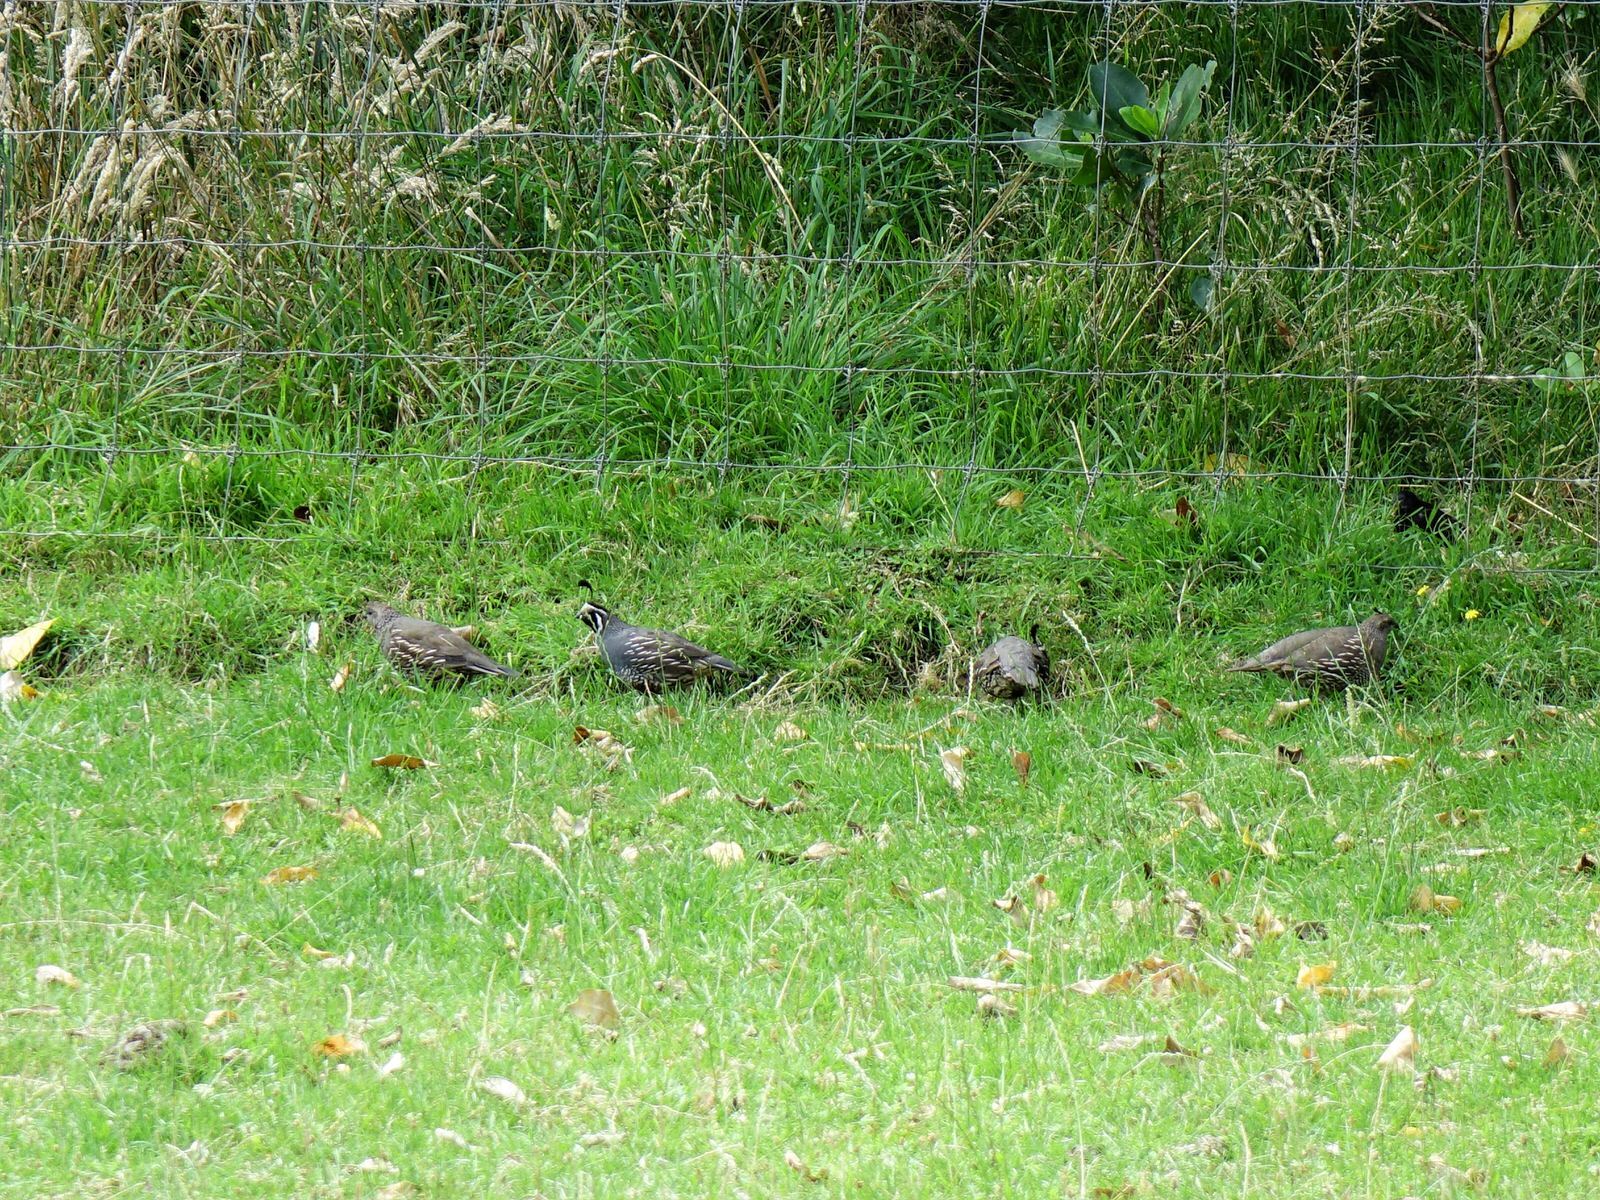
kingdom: Animalia
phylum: Chordata
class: Aves
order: Galliformes
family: Odontophoridae
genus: Callipepla
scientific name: Callipepla californica
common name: California quail
